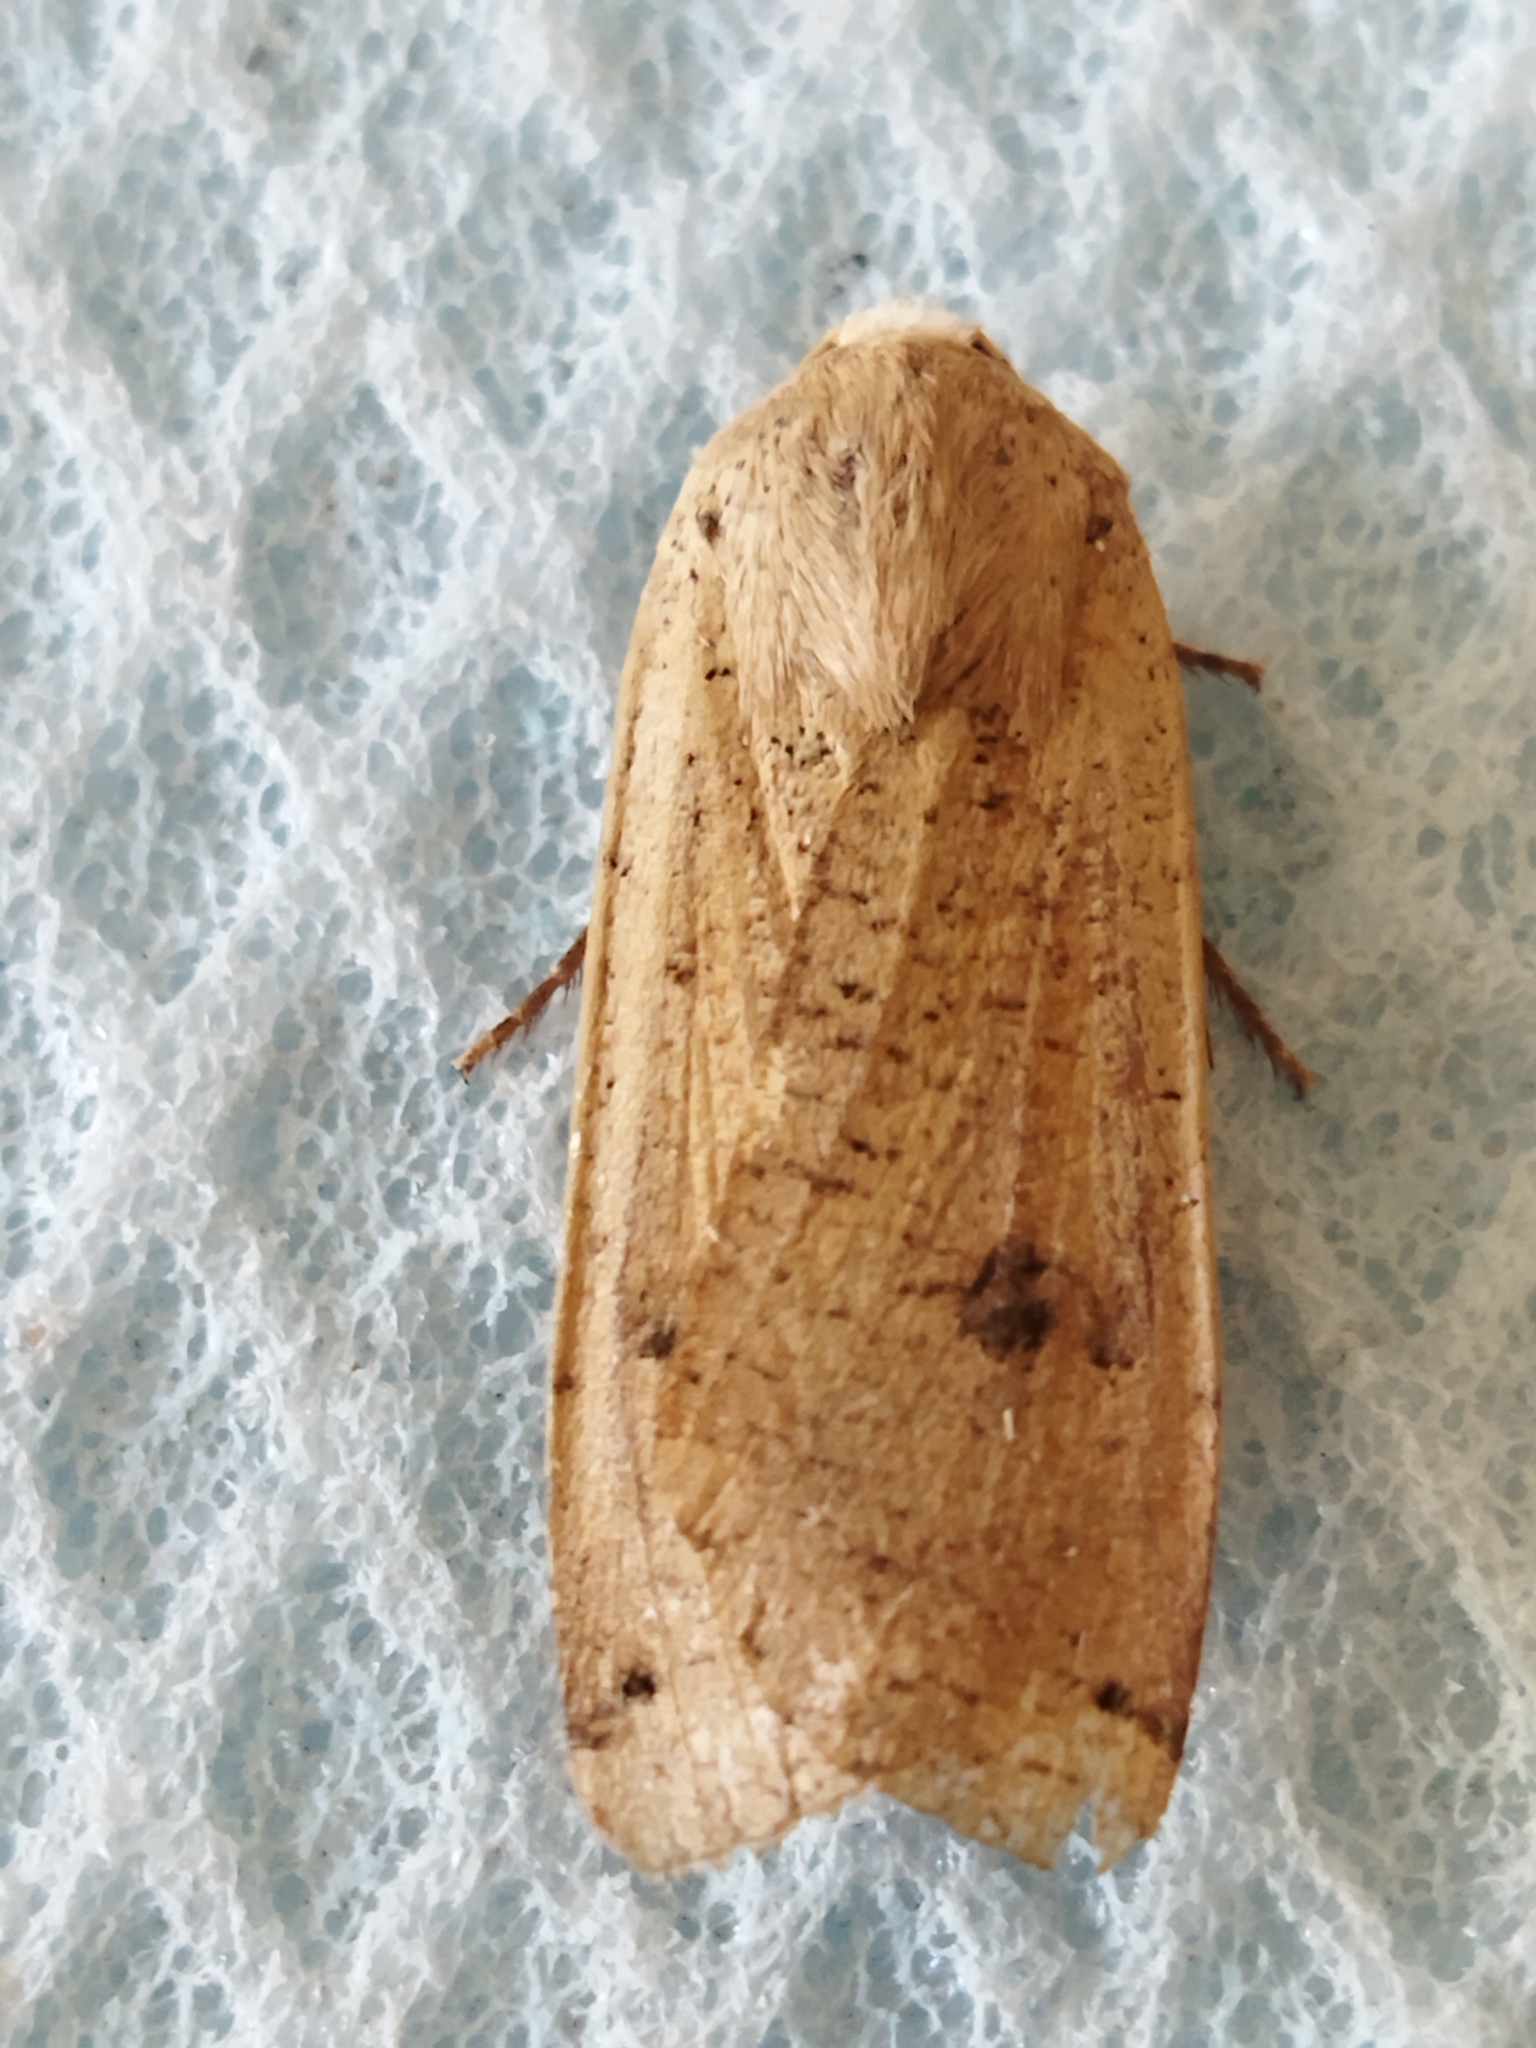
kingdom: Animalia
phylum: Arthropoda
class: Insecta
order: Lepidoptera
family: Noctuidae
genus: Noctua
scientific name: Noctua pronuba
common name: Large yellow underwing
